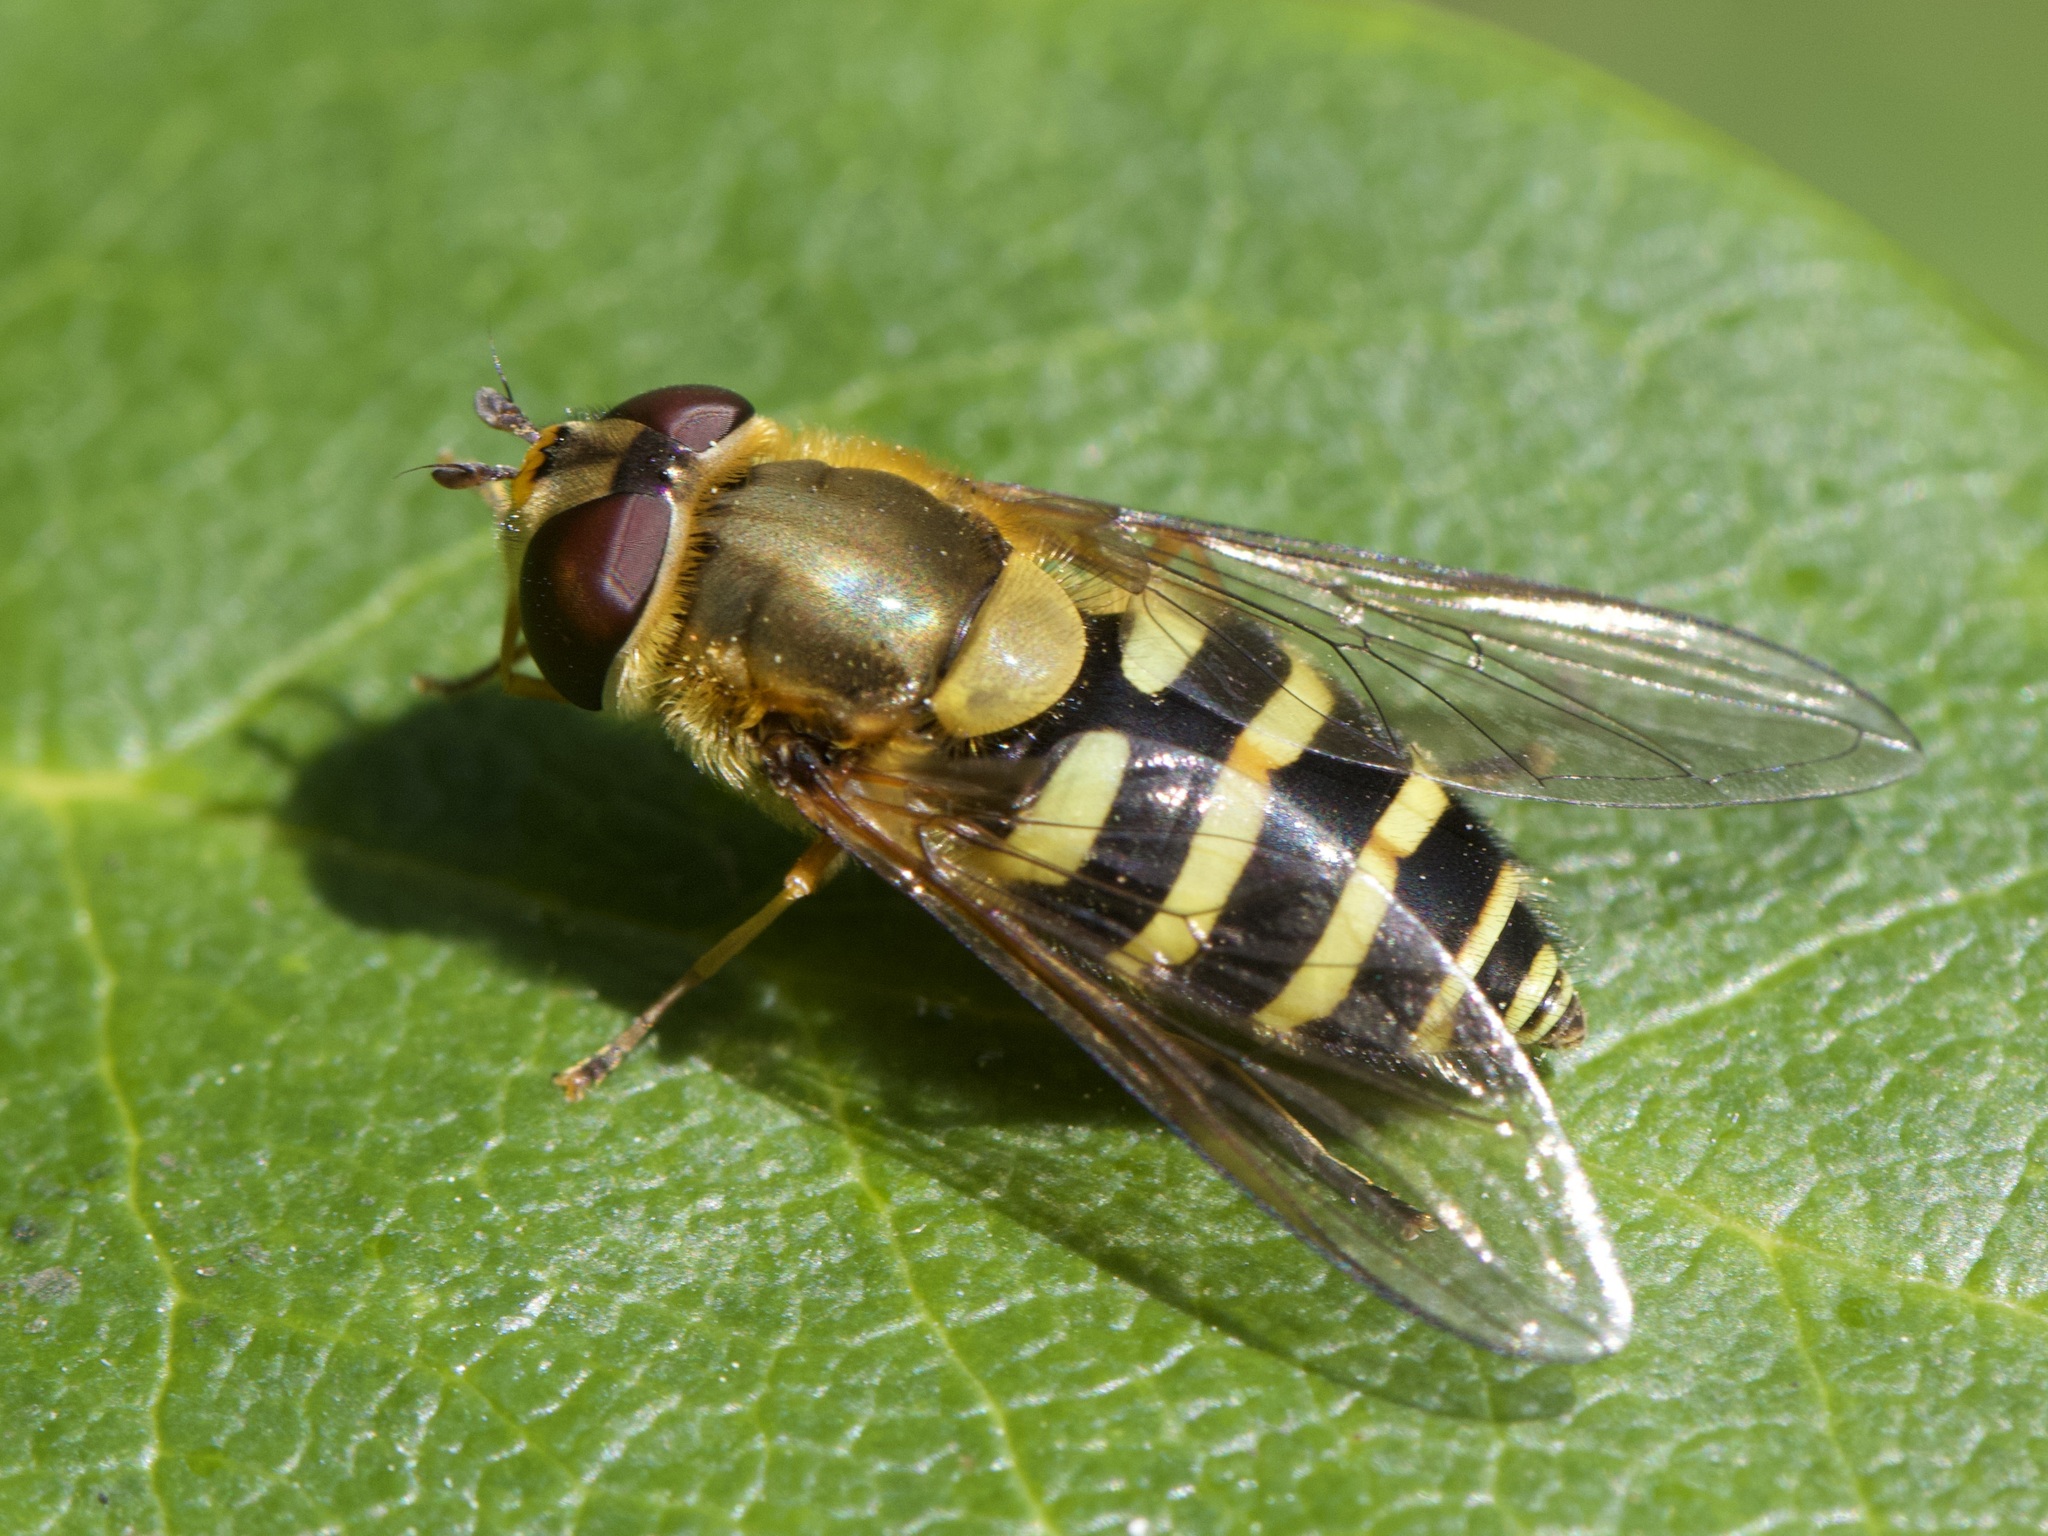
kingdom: Animalia
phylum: Arthropoda
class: Insecta
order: Diptera
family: Syrphidae
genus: Syrphus
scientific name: Syrphus
